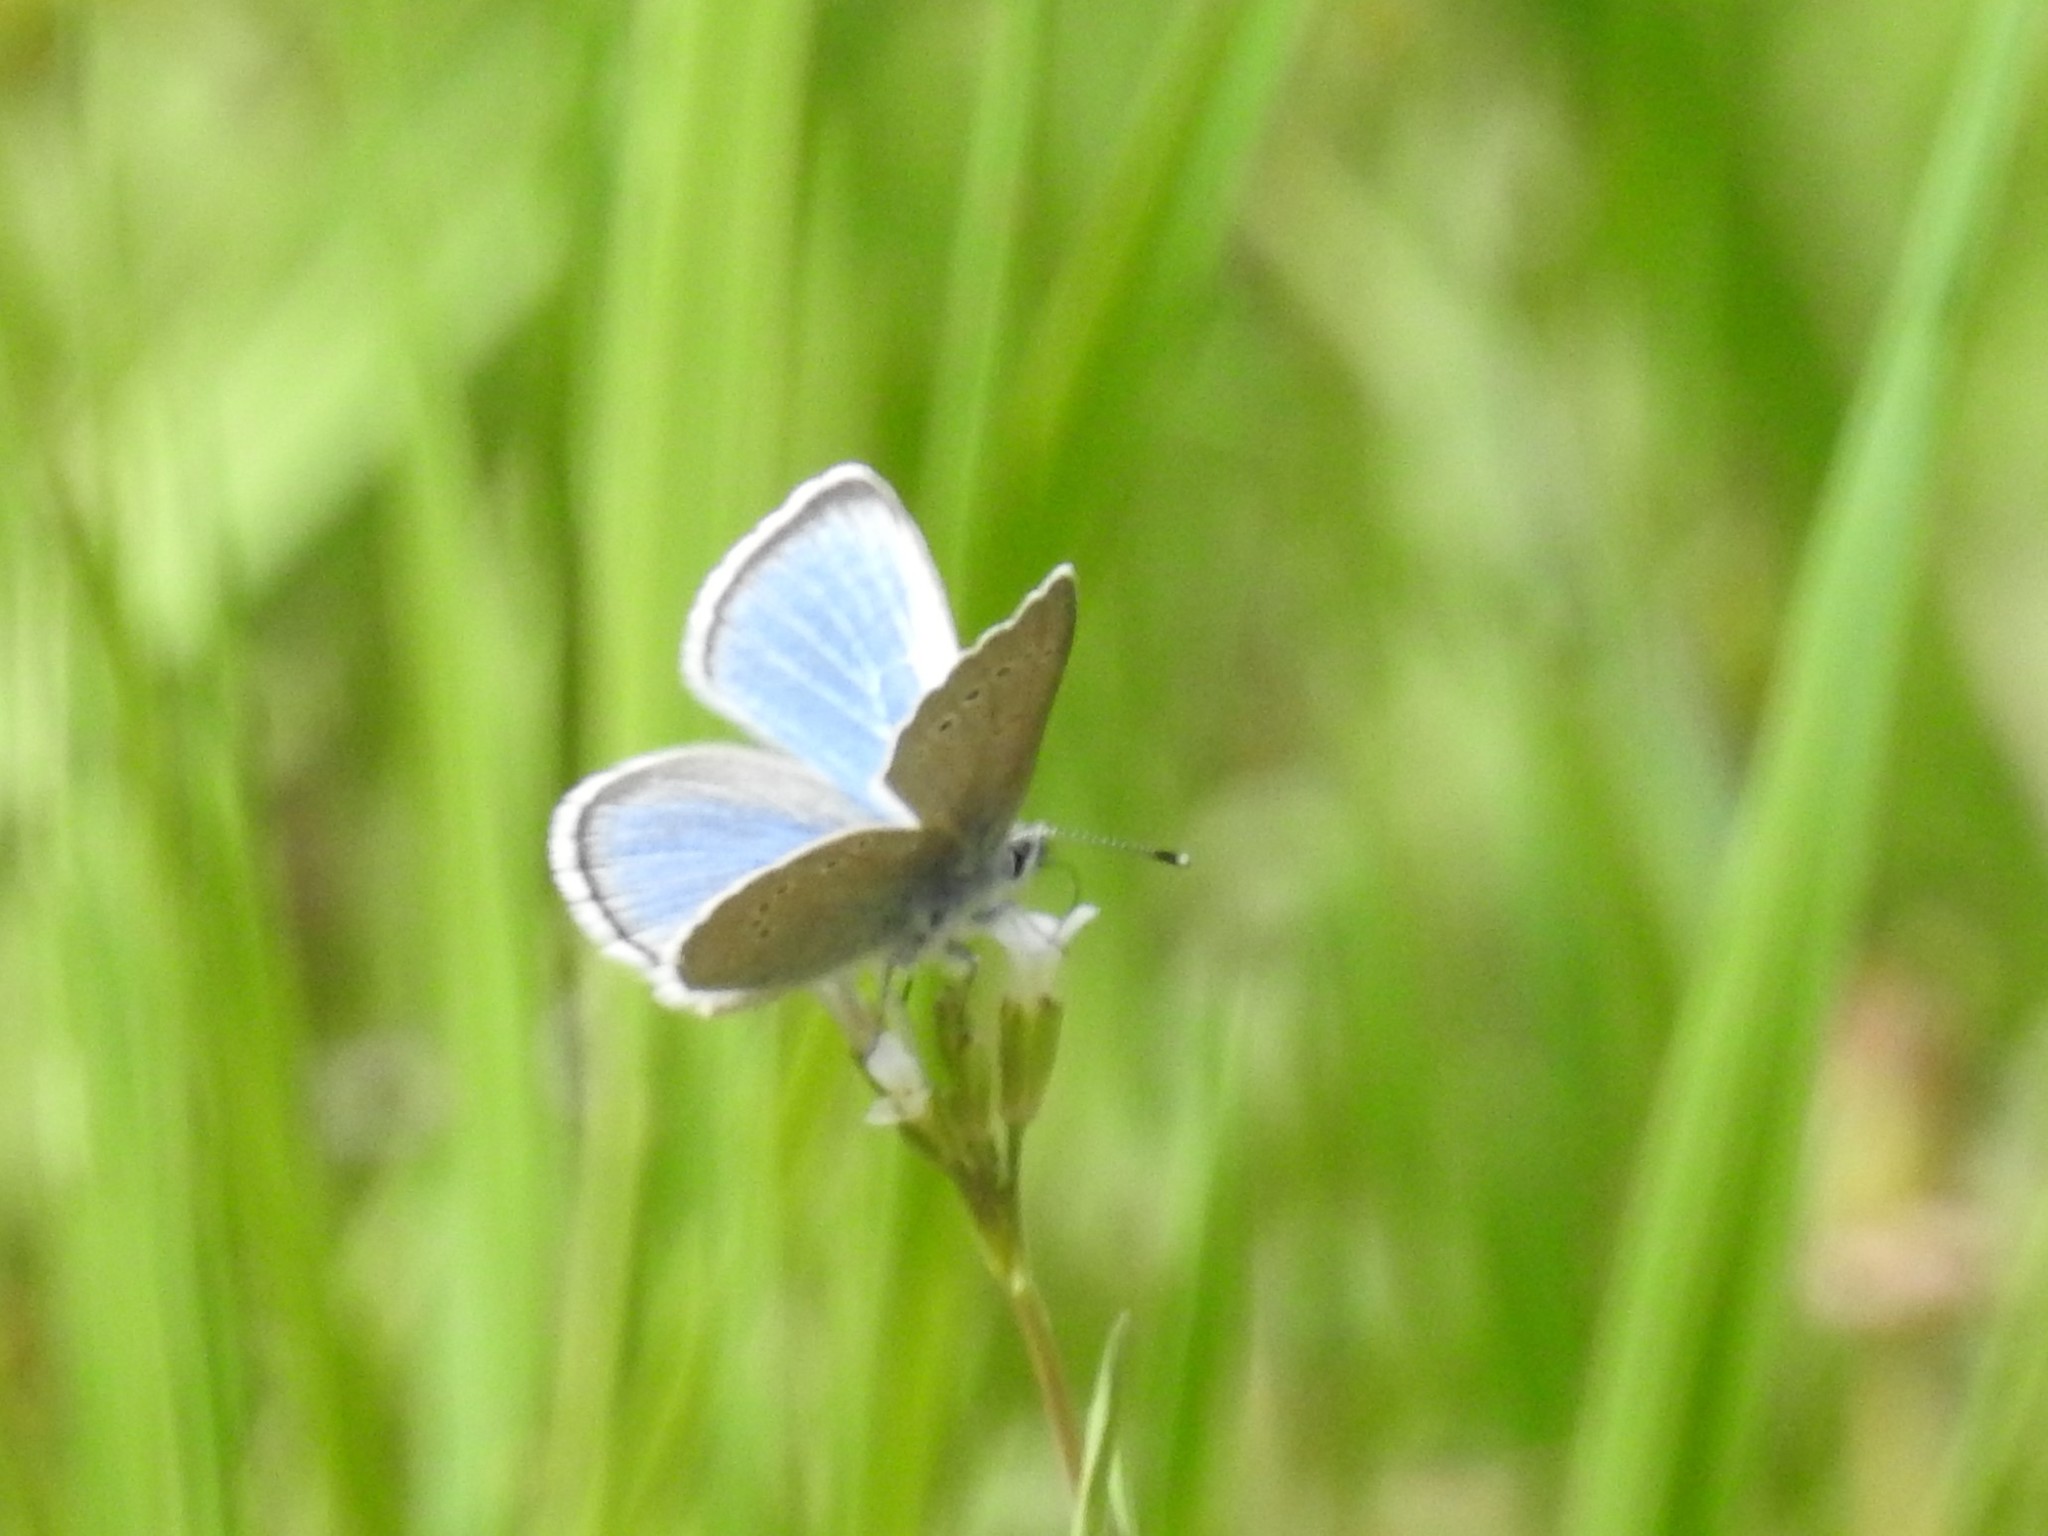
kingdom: Animalia
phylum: Arthropoda
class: Insecta
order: Lepidoptera
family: Lycaenidae
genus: Glaucopsyche
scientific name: Glaucopsyche lygdamus
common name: Silvery blue
